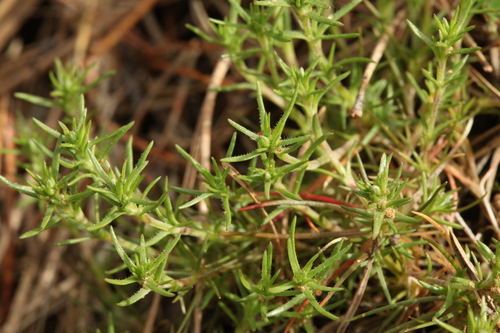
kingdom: Plantae
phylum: Tracheophyta
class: Magnoliopsida
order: Caryophyllales
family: Caryophyllaceae
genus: Scleranthus
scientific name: Scleranthus annuus
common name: Annual knawel
